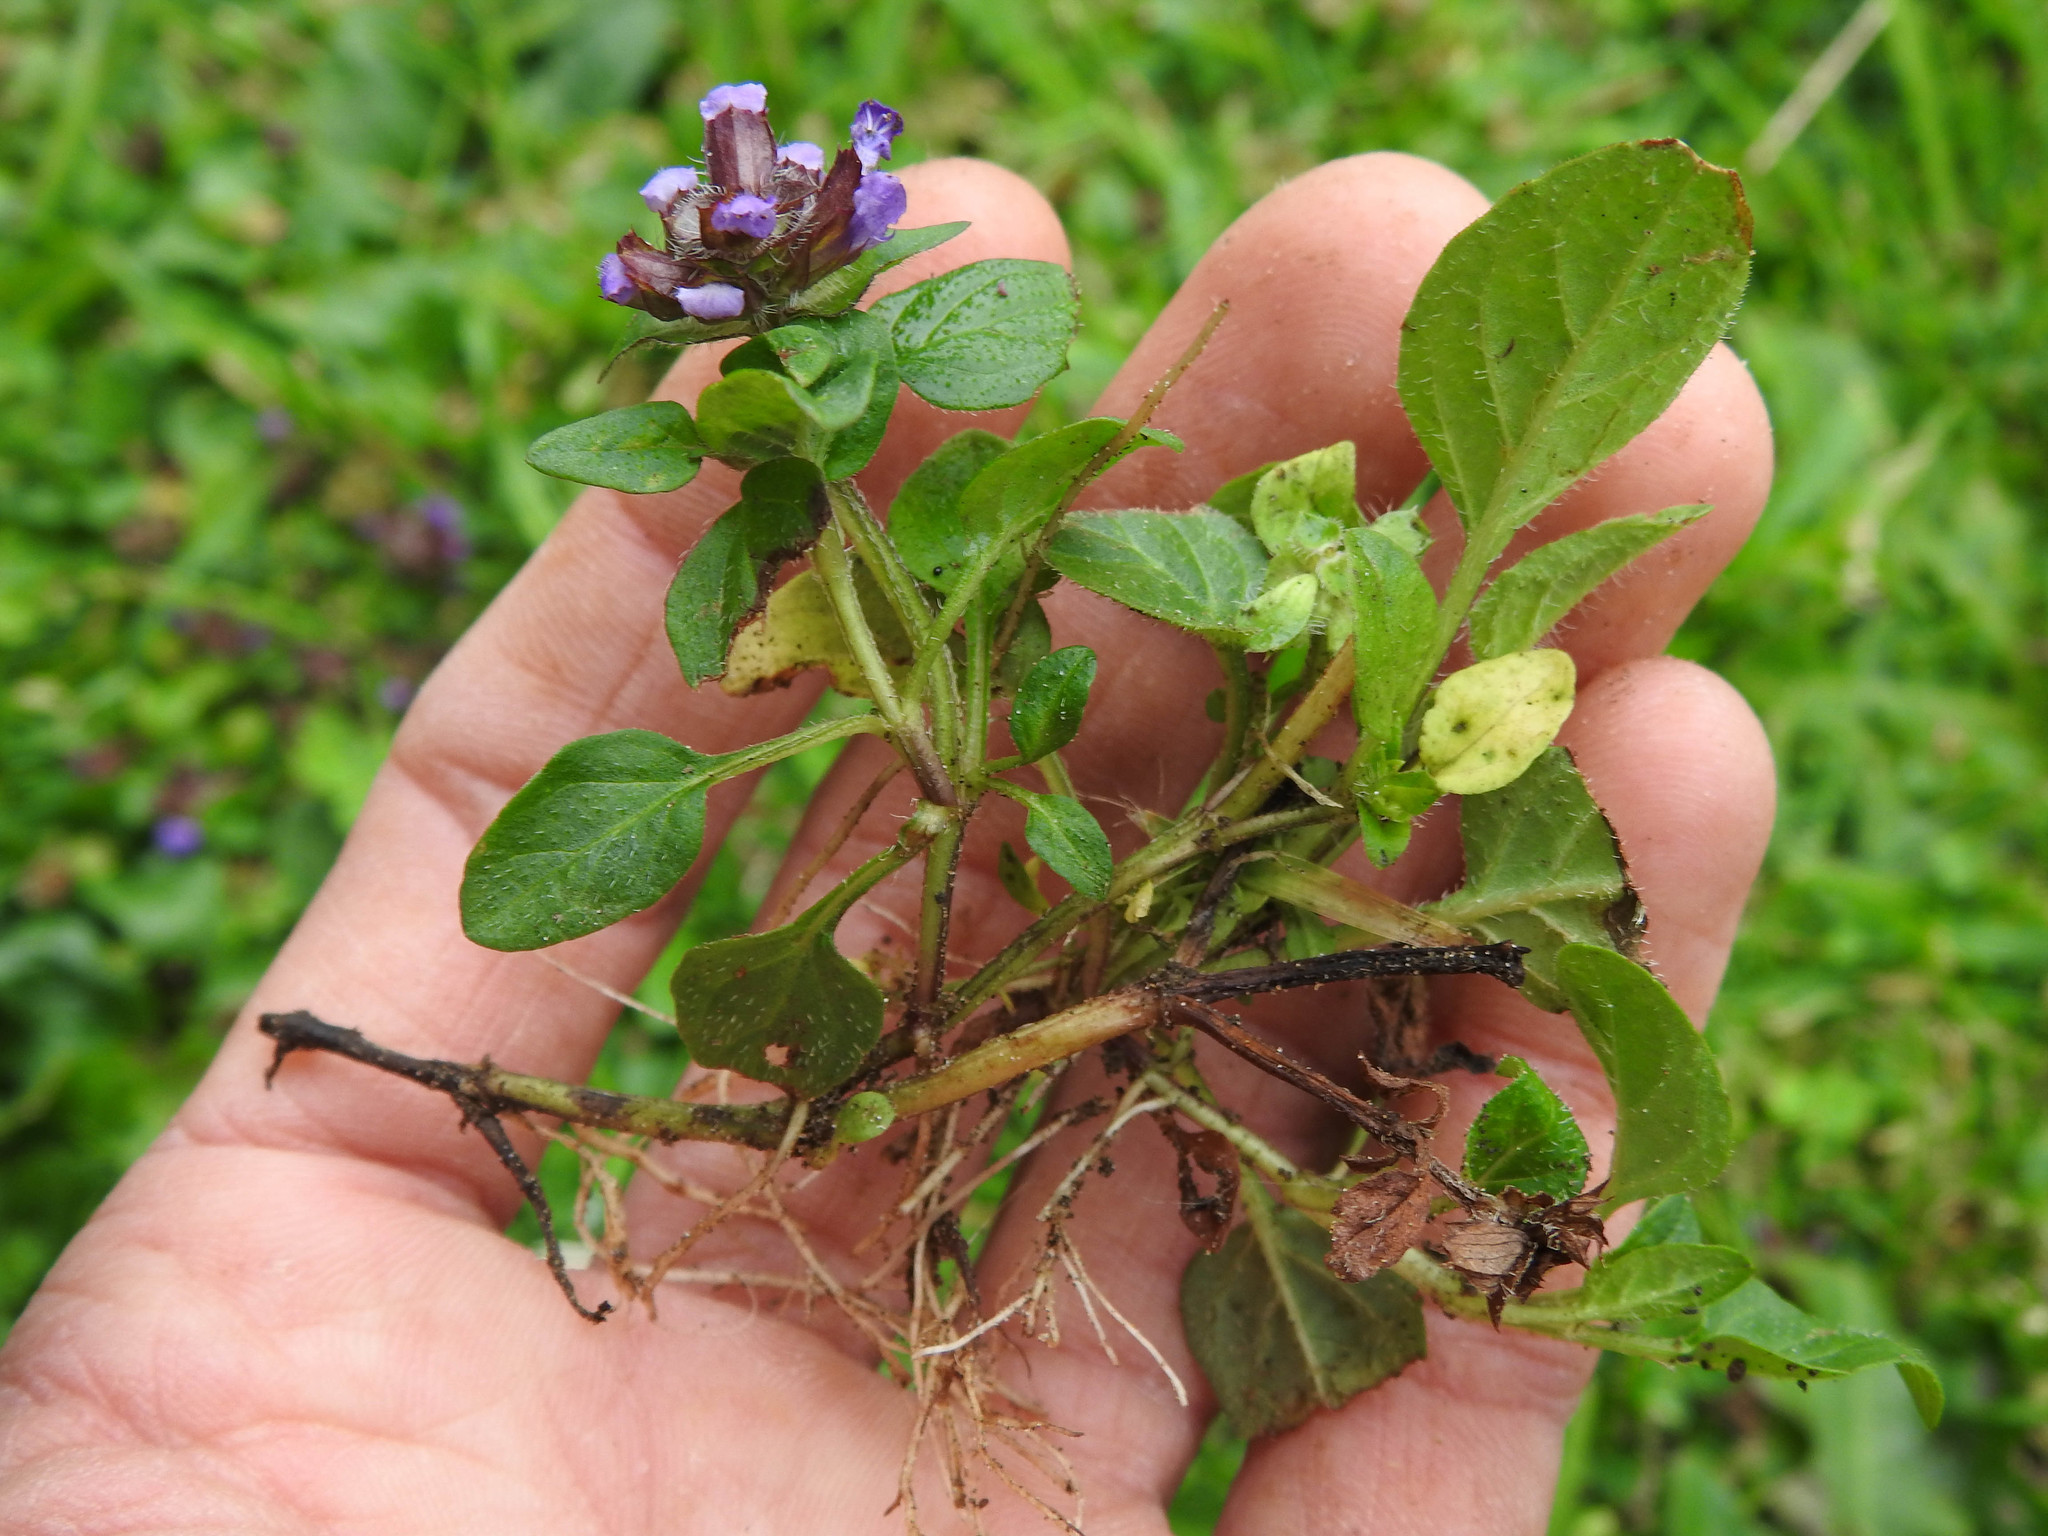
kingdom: Plantae
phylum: Tracheophyta
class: Magnoliopsida
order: Lamiales
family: Lamiaceae
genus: Prunella
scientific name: Prunella vulgaris
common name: Heal-all
